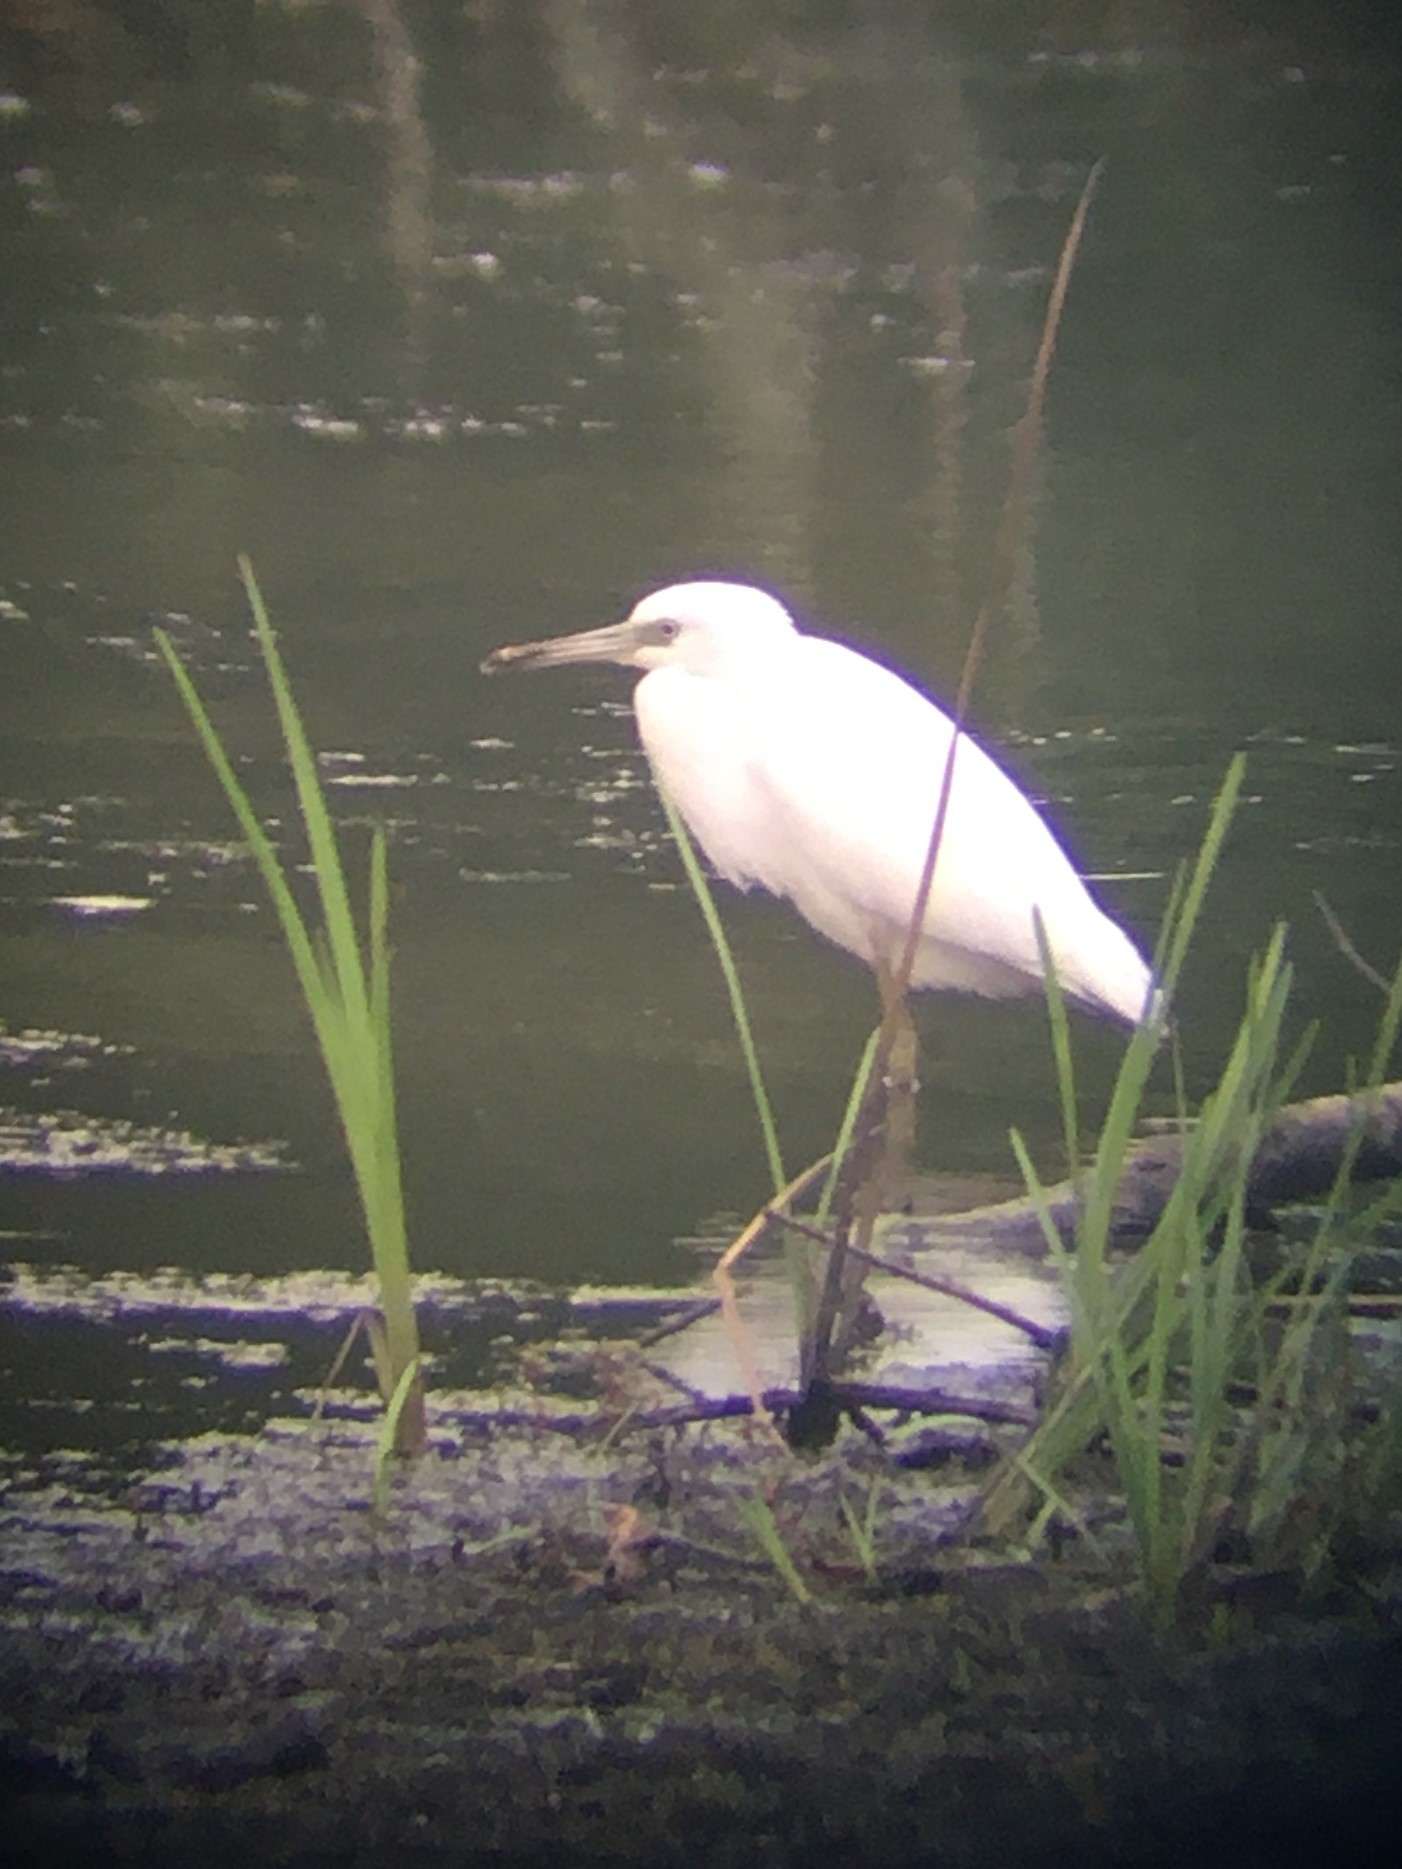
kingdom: Animalia
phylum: Chordata
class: Aves
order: Pelecaniformes
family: Ardeidae
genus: Egretta
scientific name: Egretta caerulea
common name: Little blue heron
